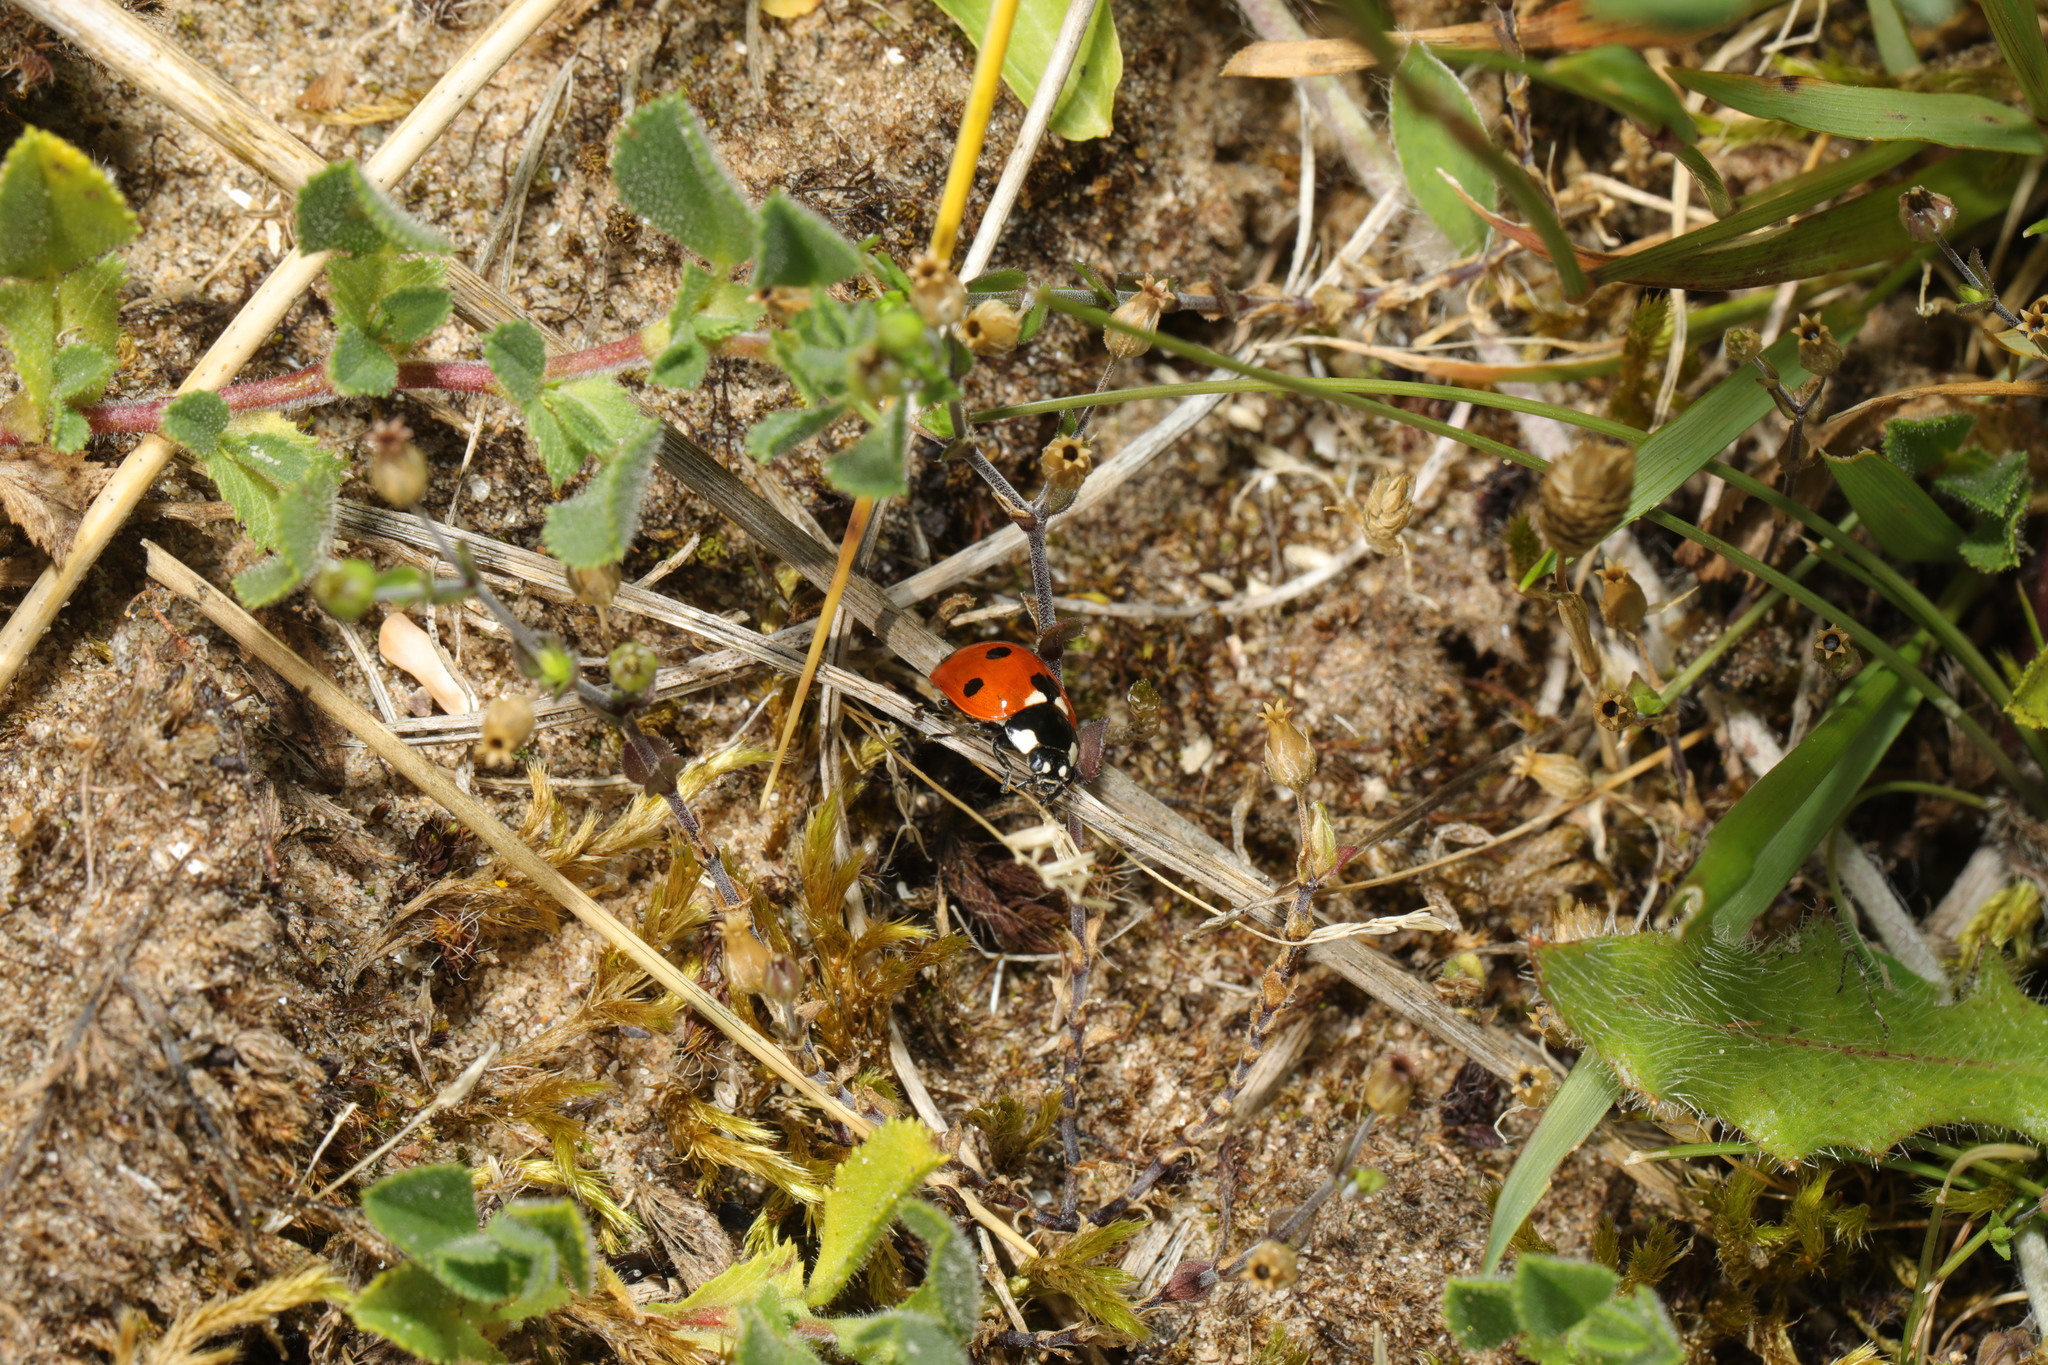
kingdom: Animalia
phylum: Arthropoda
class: Insecta
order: Coleoptera
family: Coccinellidae
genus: Coccinella
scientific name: Coccinella septempunctata
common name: Sevenspotted lady beetle
